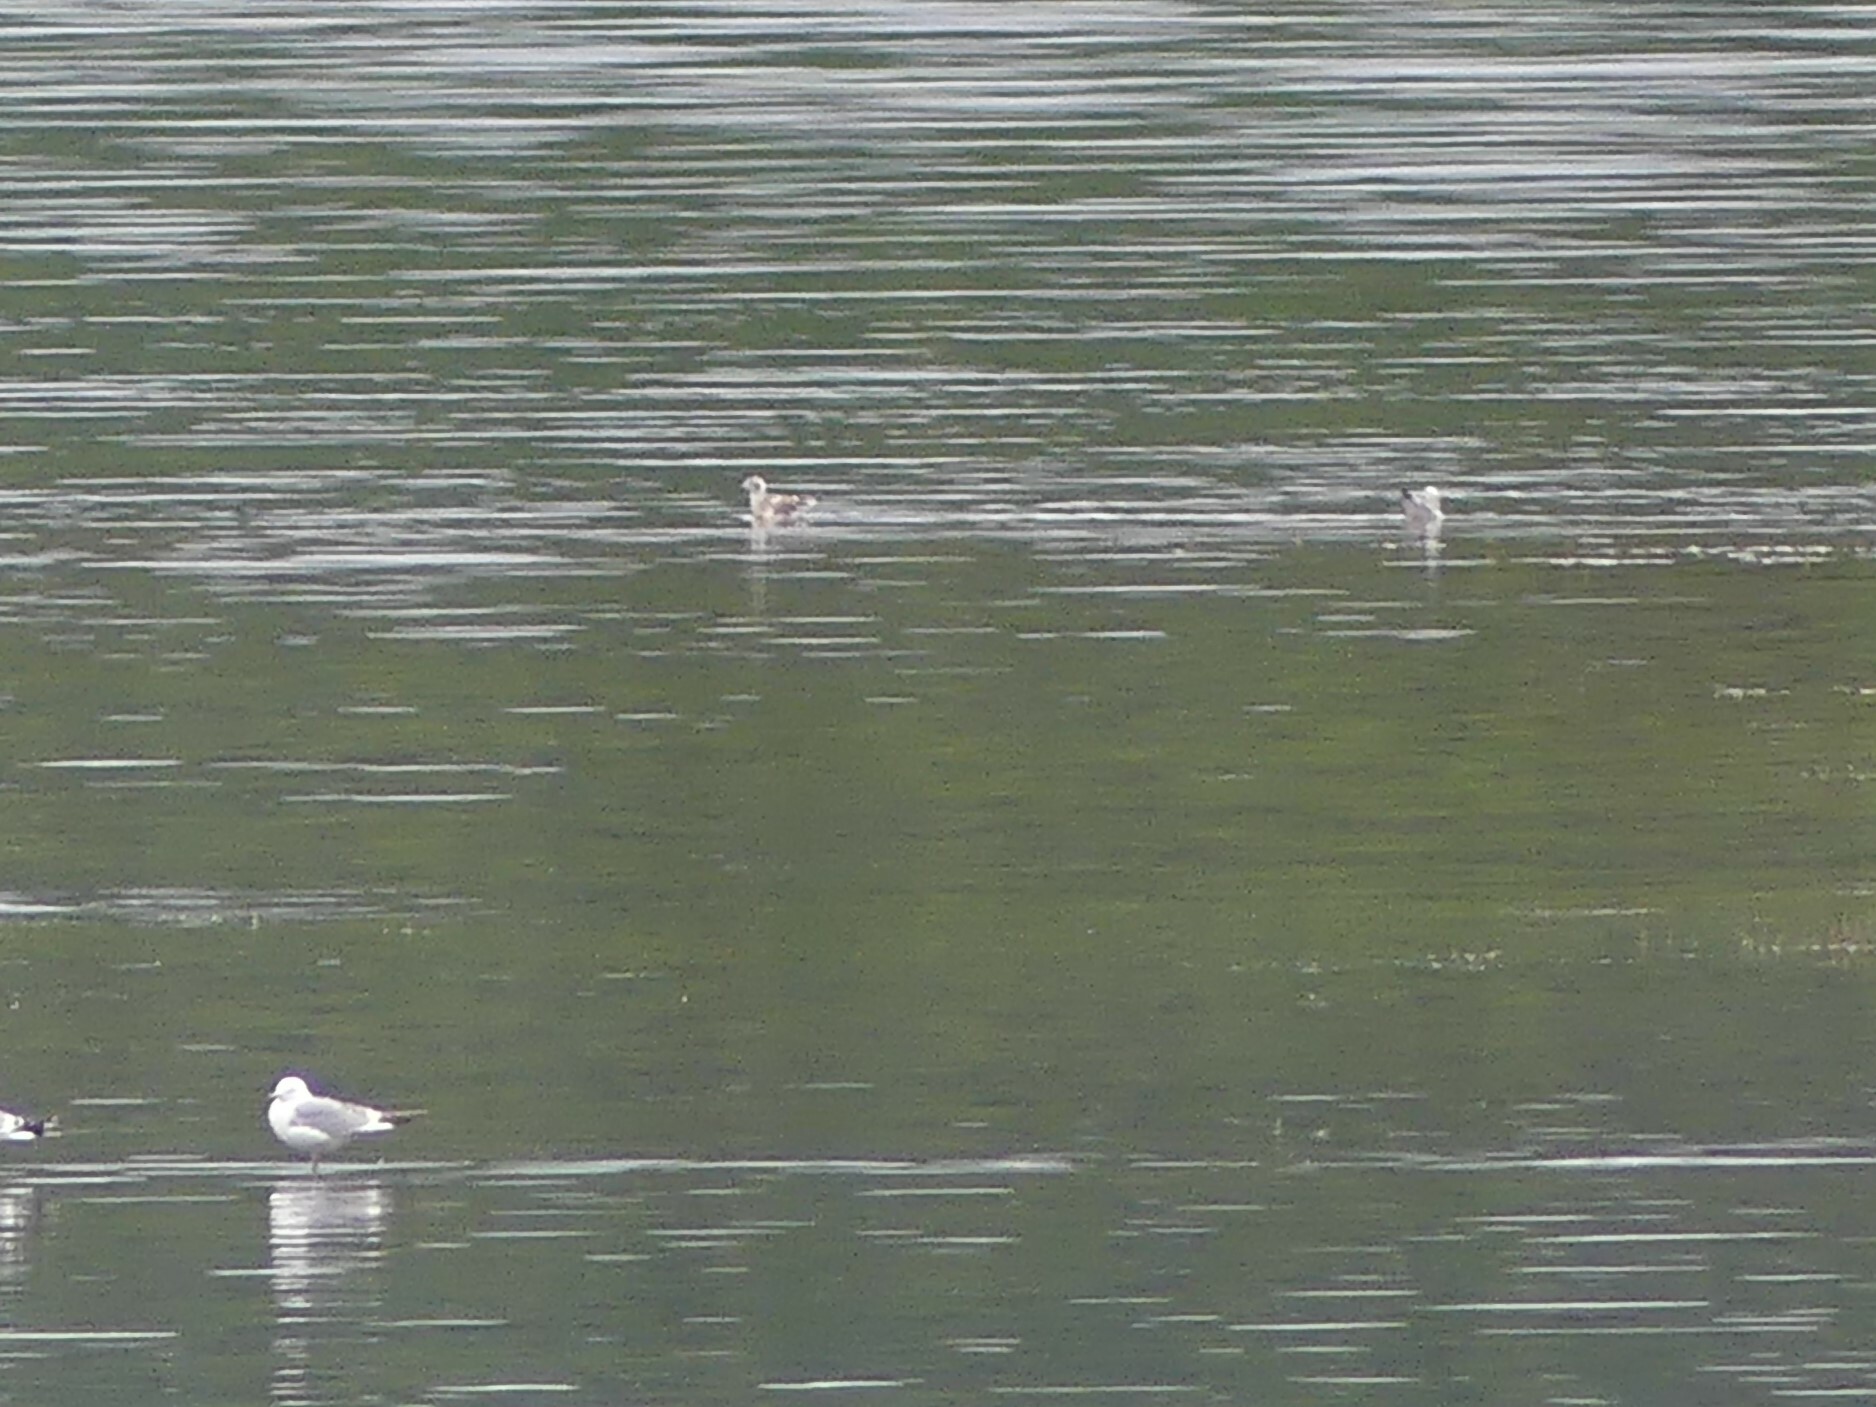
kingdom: Animalia
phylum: Chordata
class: Aves
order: Charadriiformes
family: Laridae
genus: Chroicocephalus
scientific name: Chroicocephalus philadelphia
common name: Bonaparte's gull
